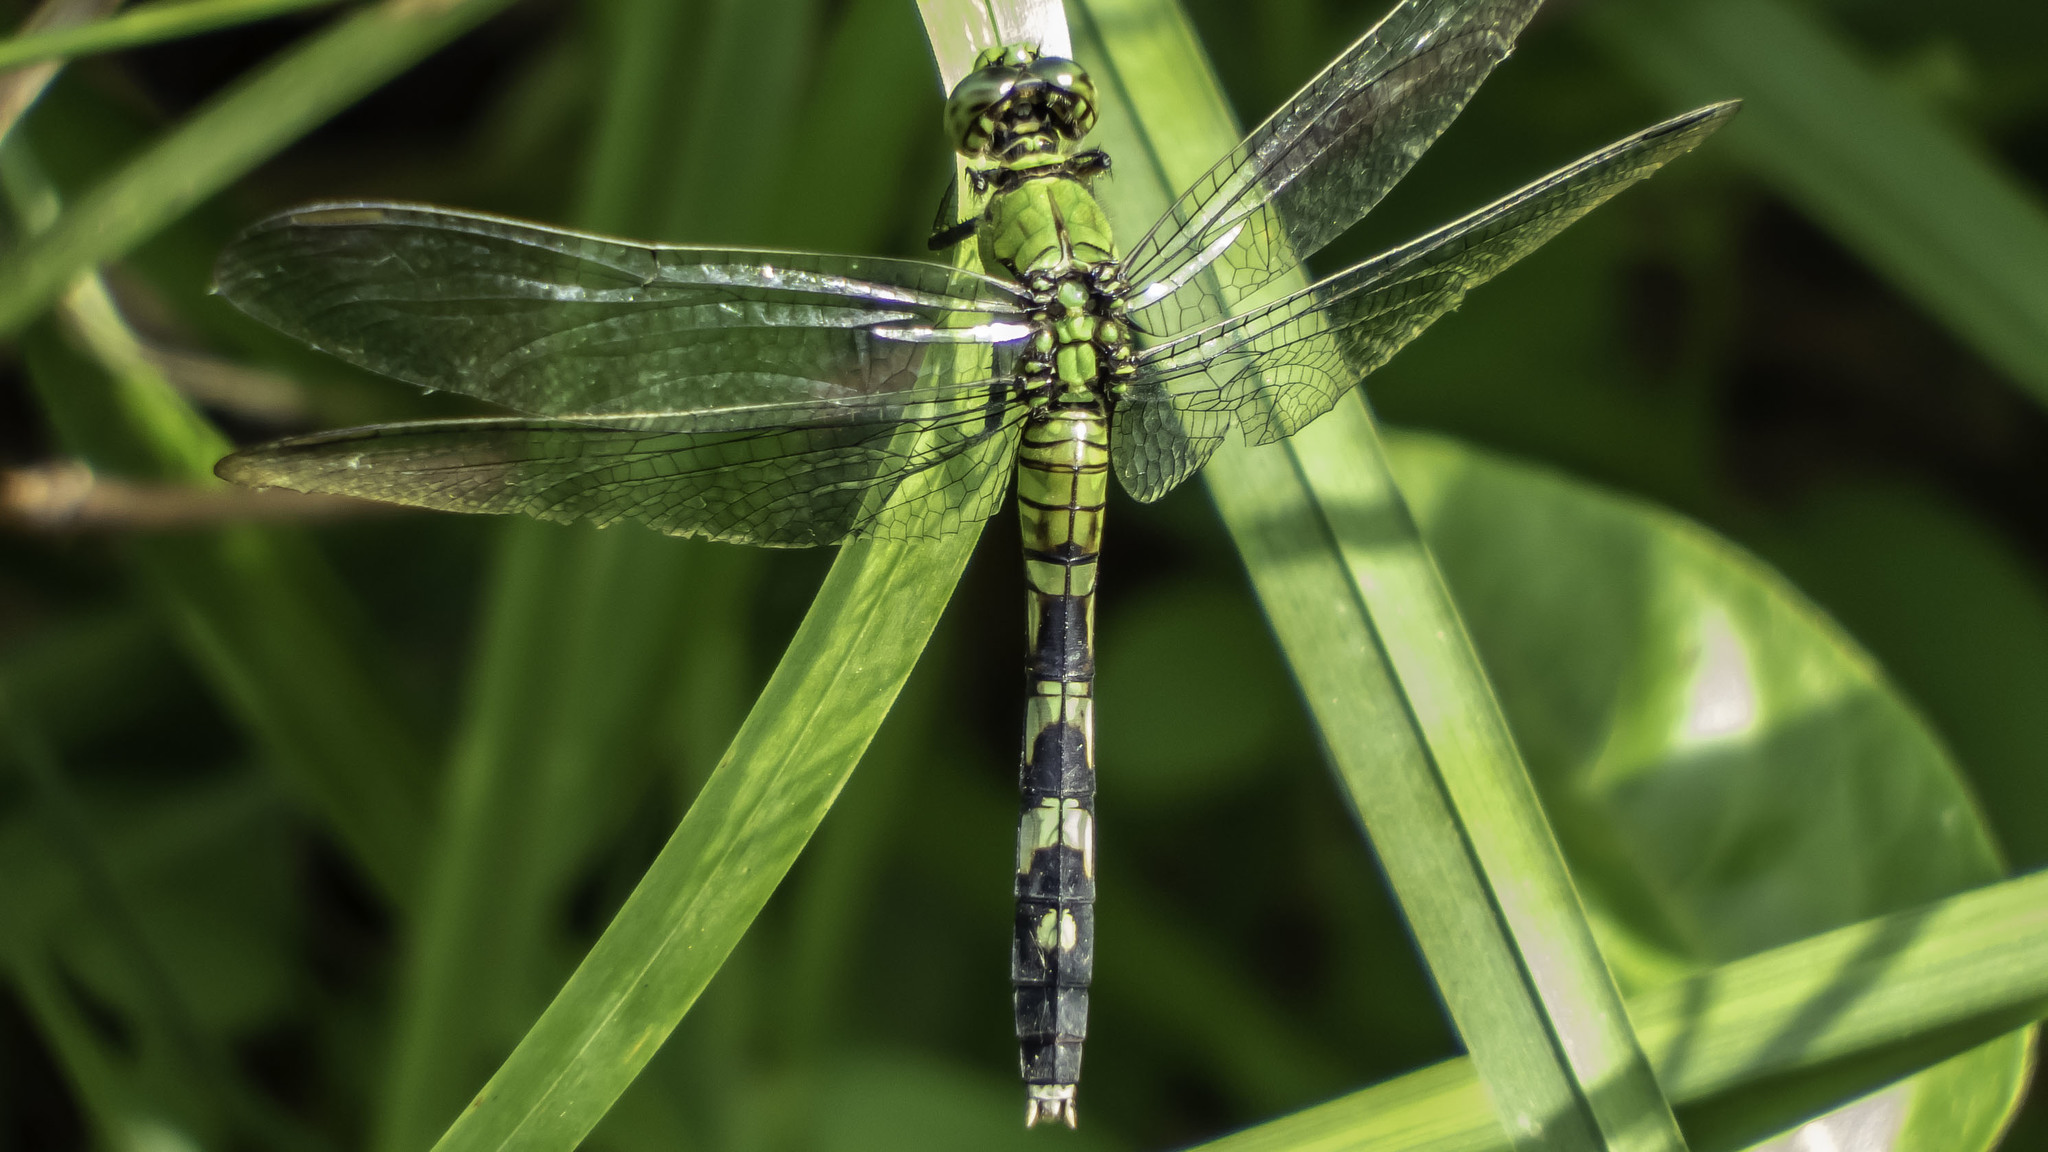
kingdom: Animalia
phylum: Arthropoda
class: Insecta
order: Odonata
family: Libellulidae
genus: Erythemis
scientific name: Erythemis simplicicollis
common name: Eastern pondhawk
